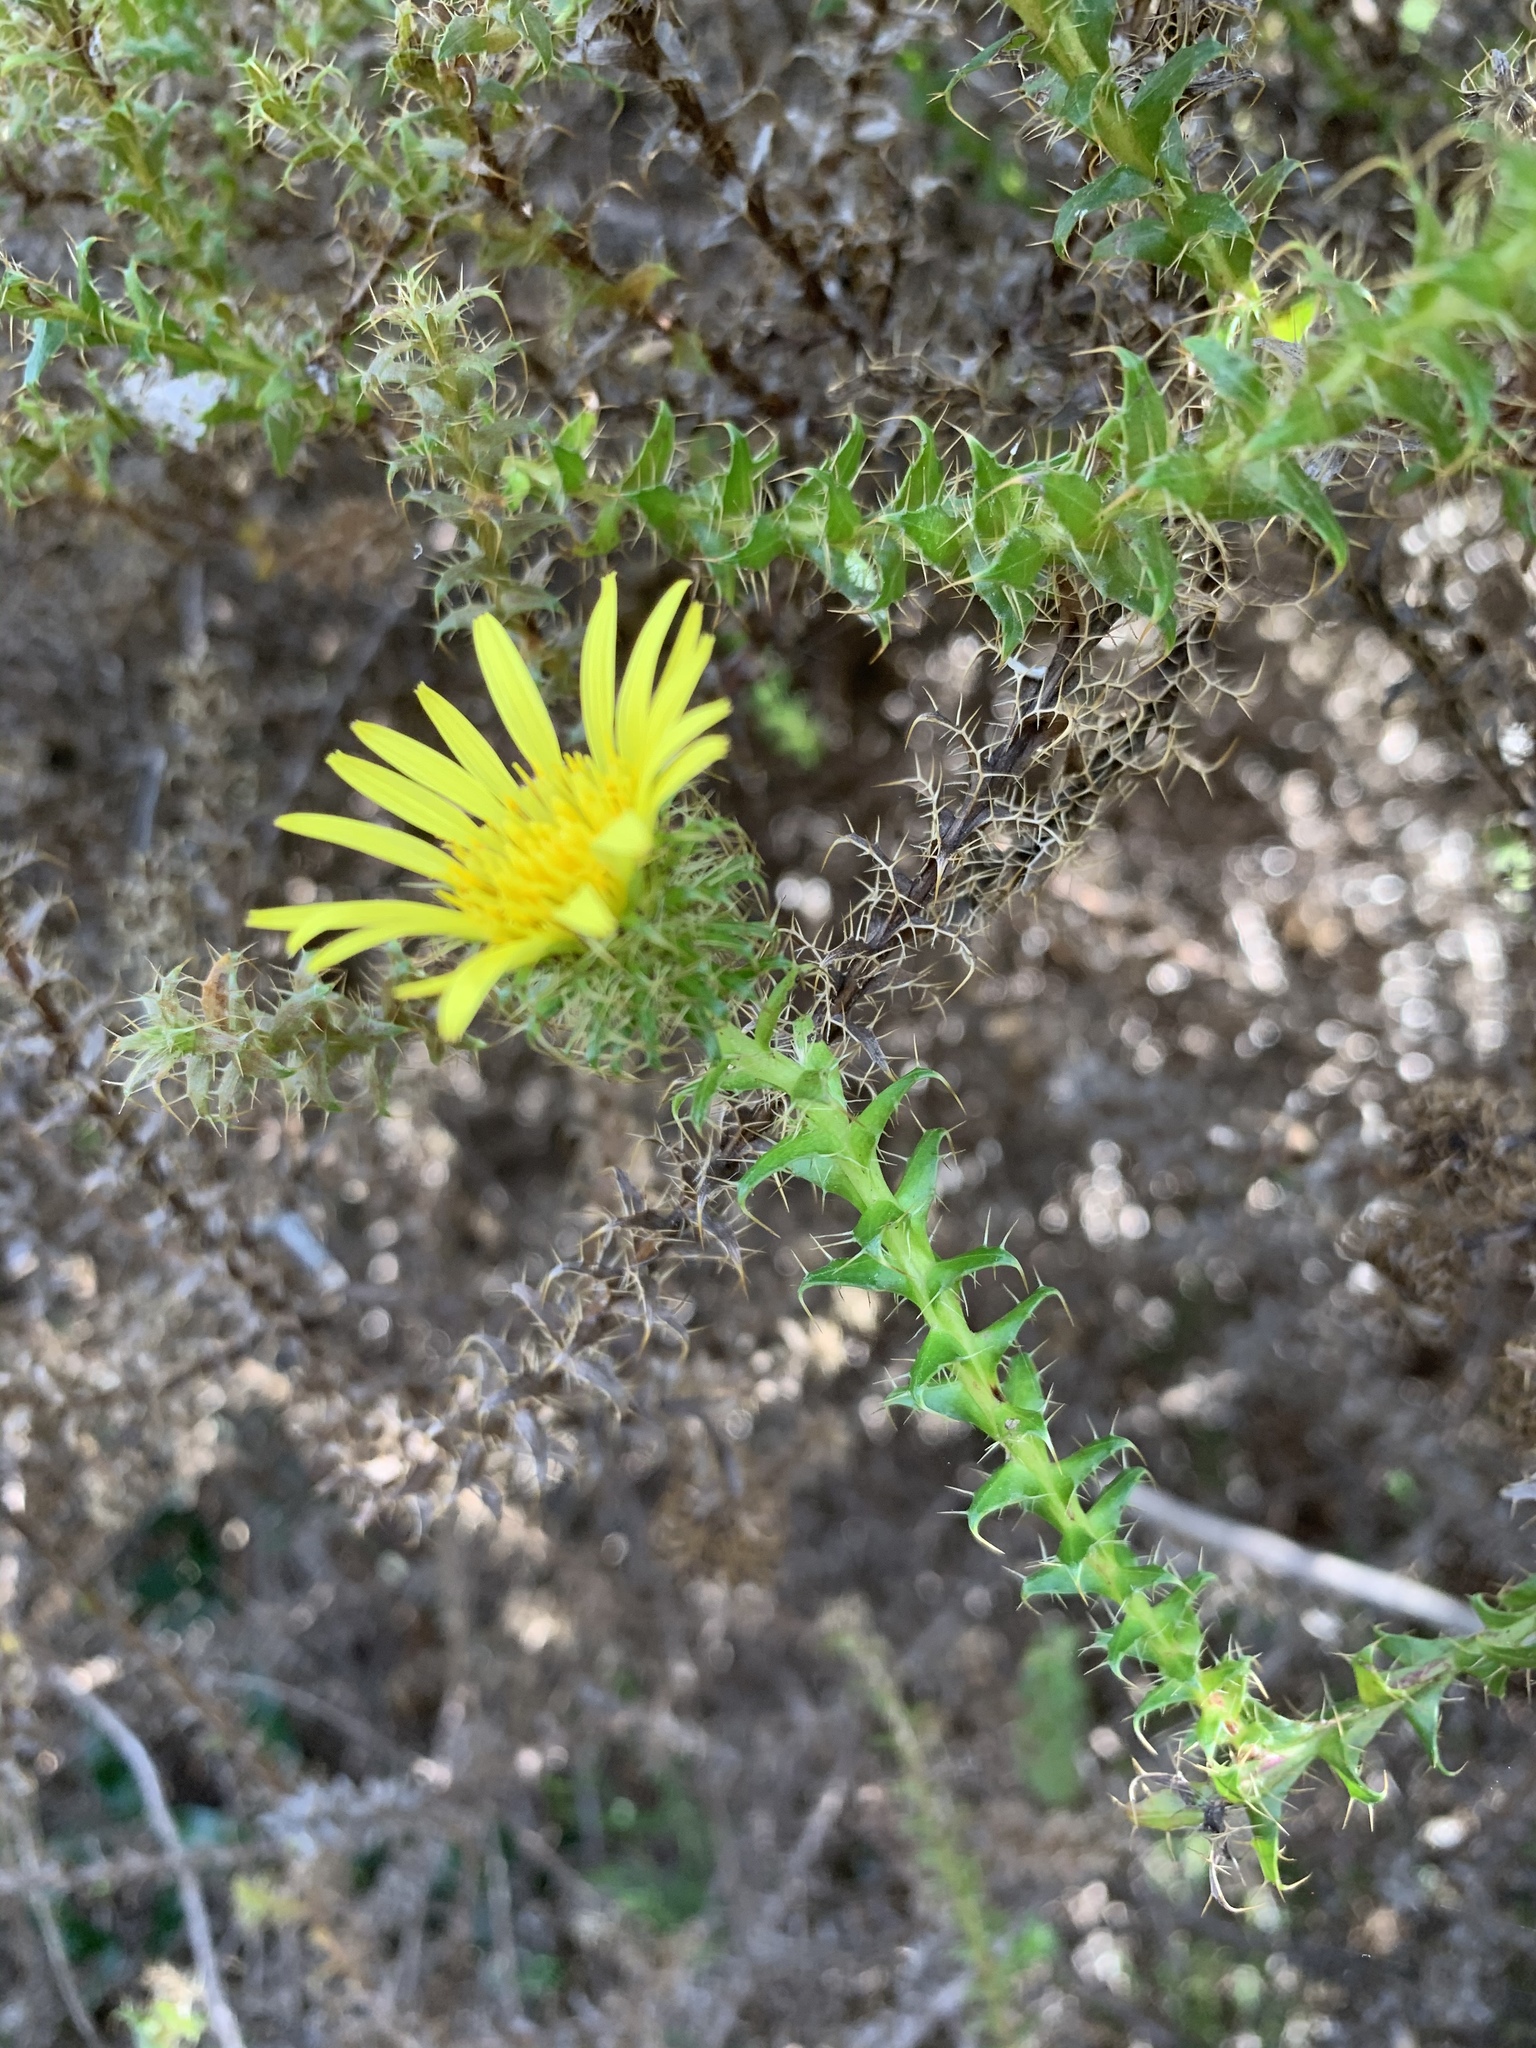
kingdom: Plantae
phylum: Tracheophyta
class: Magnoliopsida
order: Asterales
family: Asteraceae
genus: Cullumia
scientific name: Cullumia setosa
